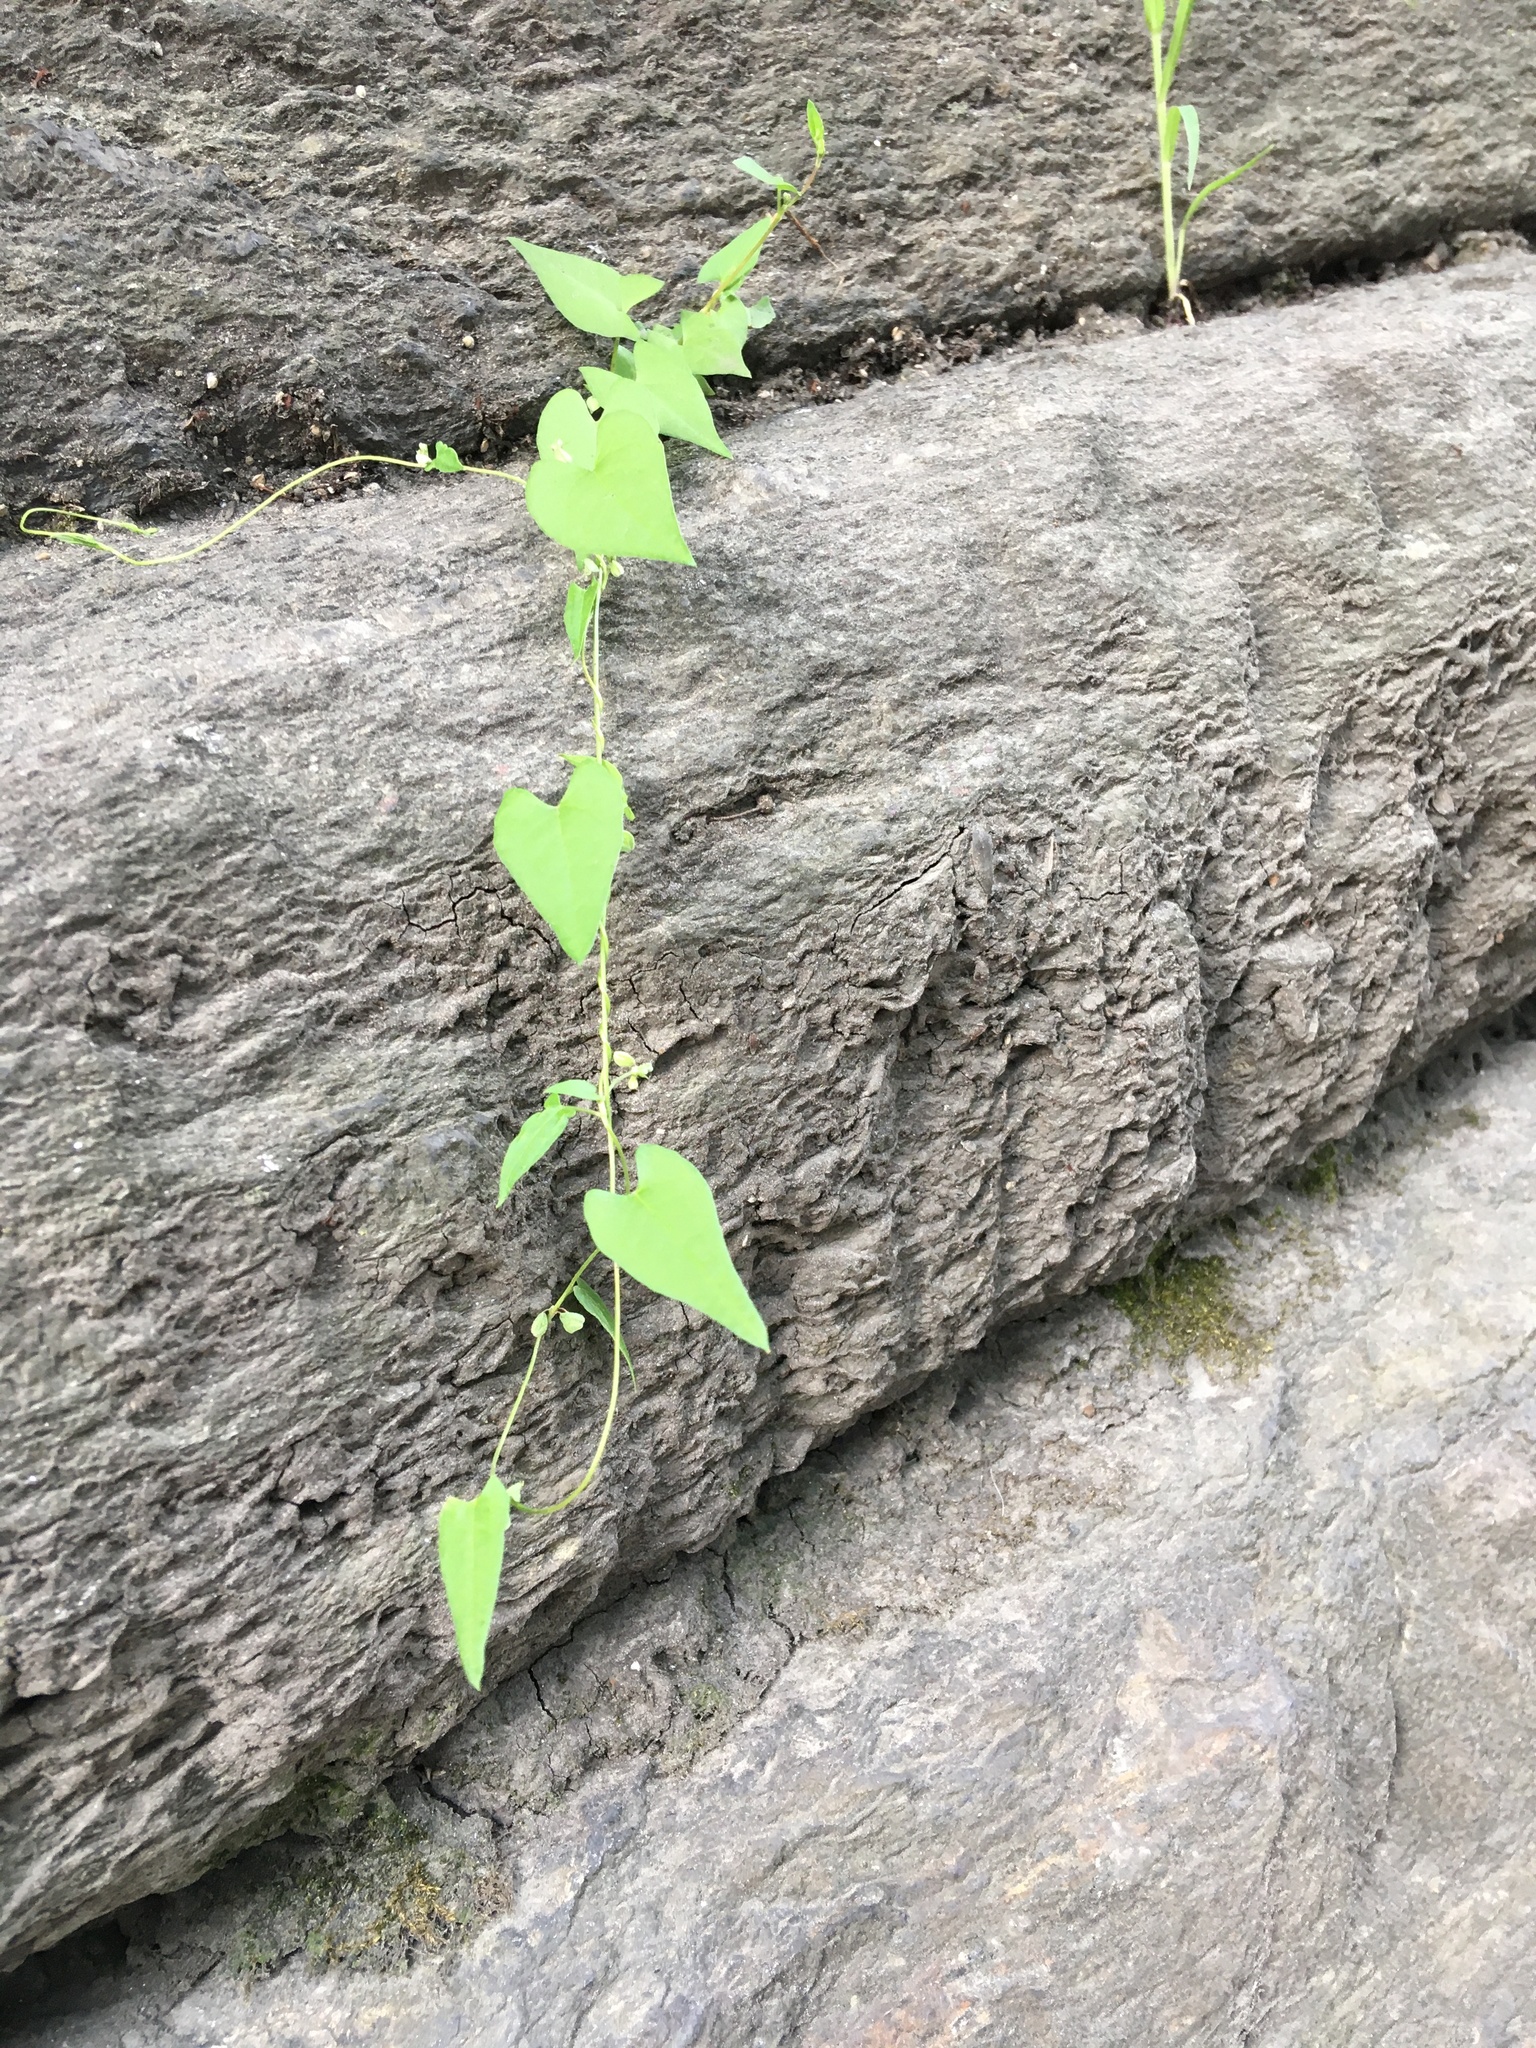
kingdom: Plantae
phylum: Tracheophyta
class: Magnoliopsida
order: Caryophyllales
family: Polygonaceae
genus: Fallopia
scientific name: Fallopia convolvulus
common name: Black bindweed
